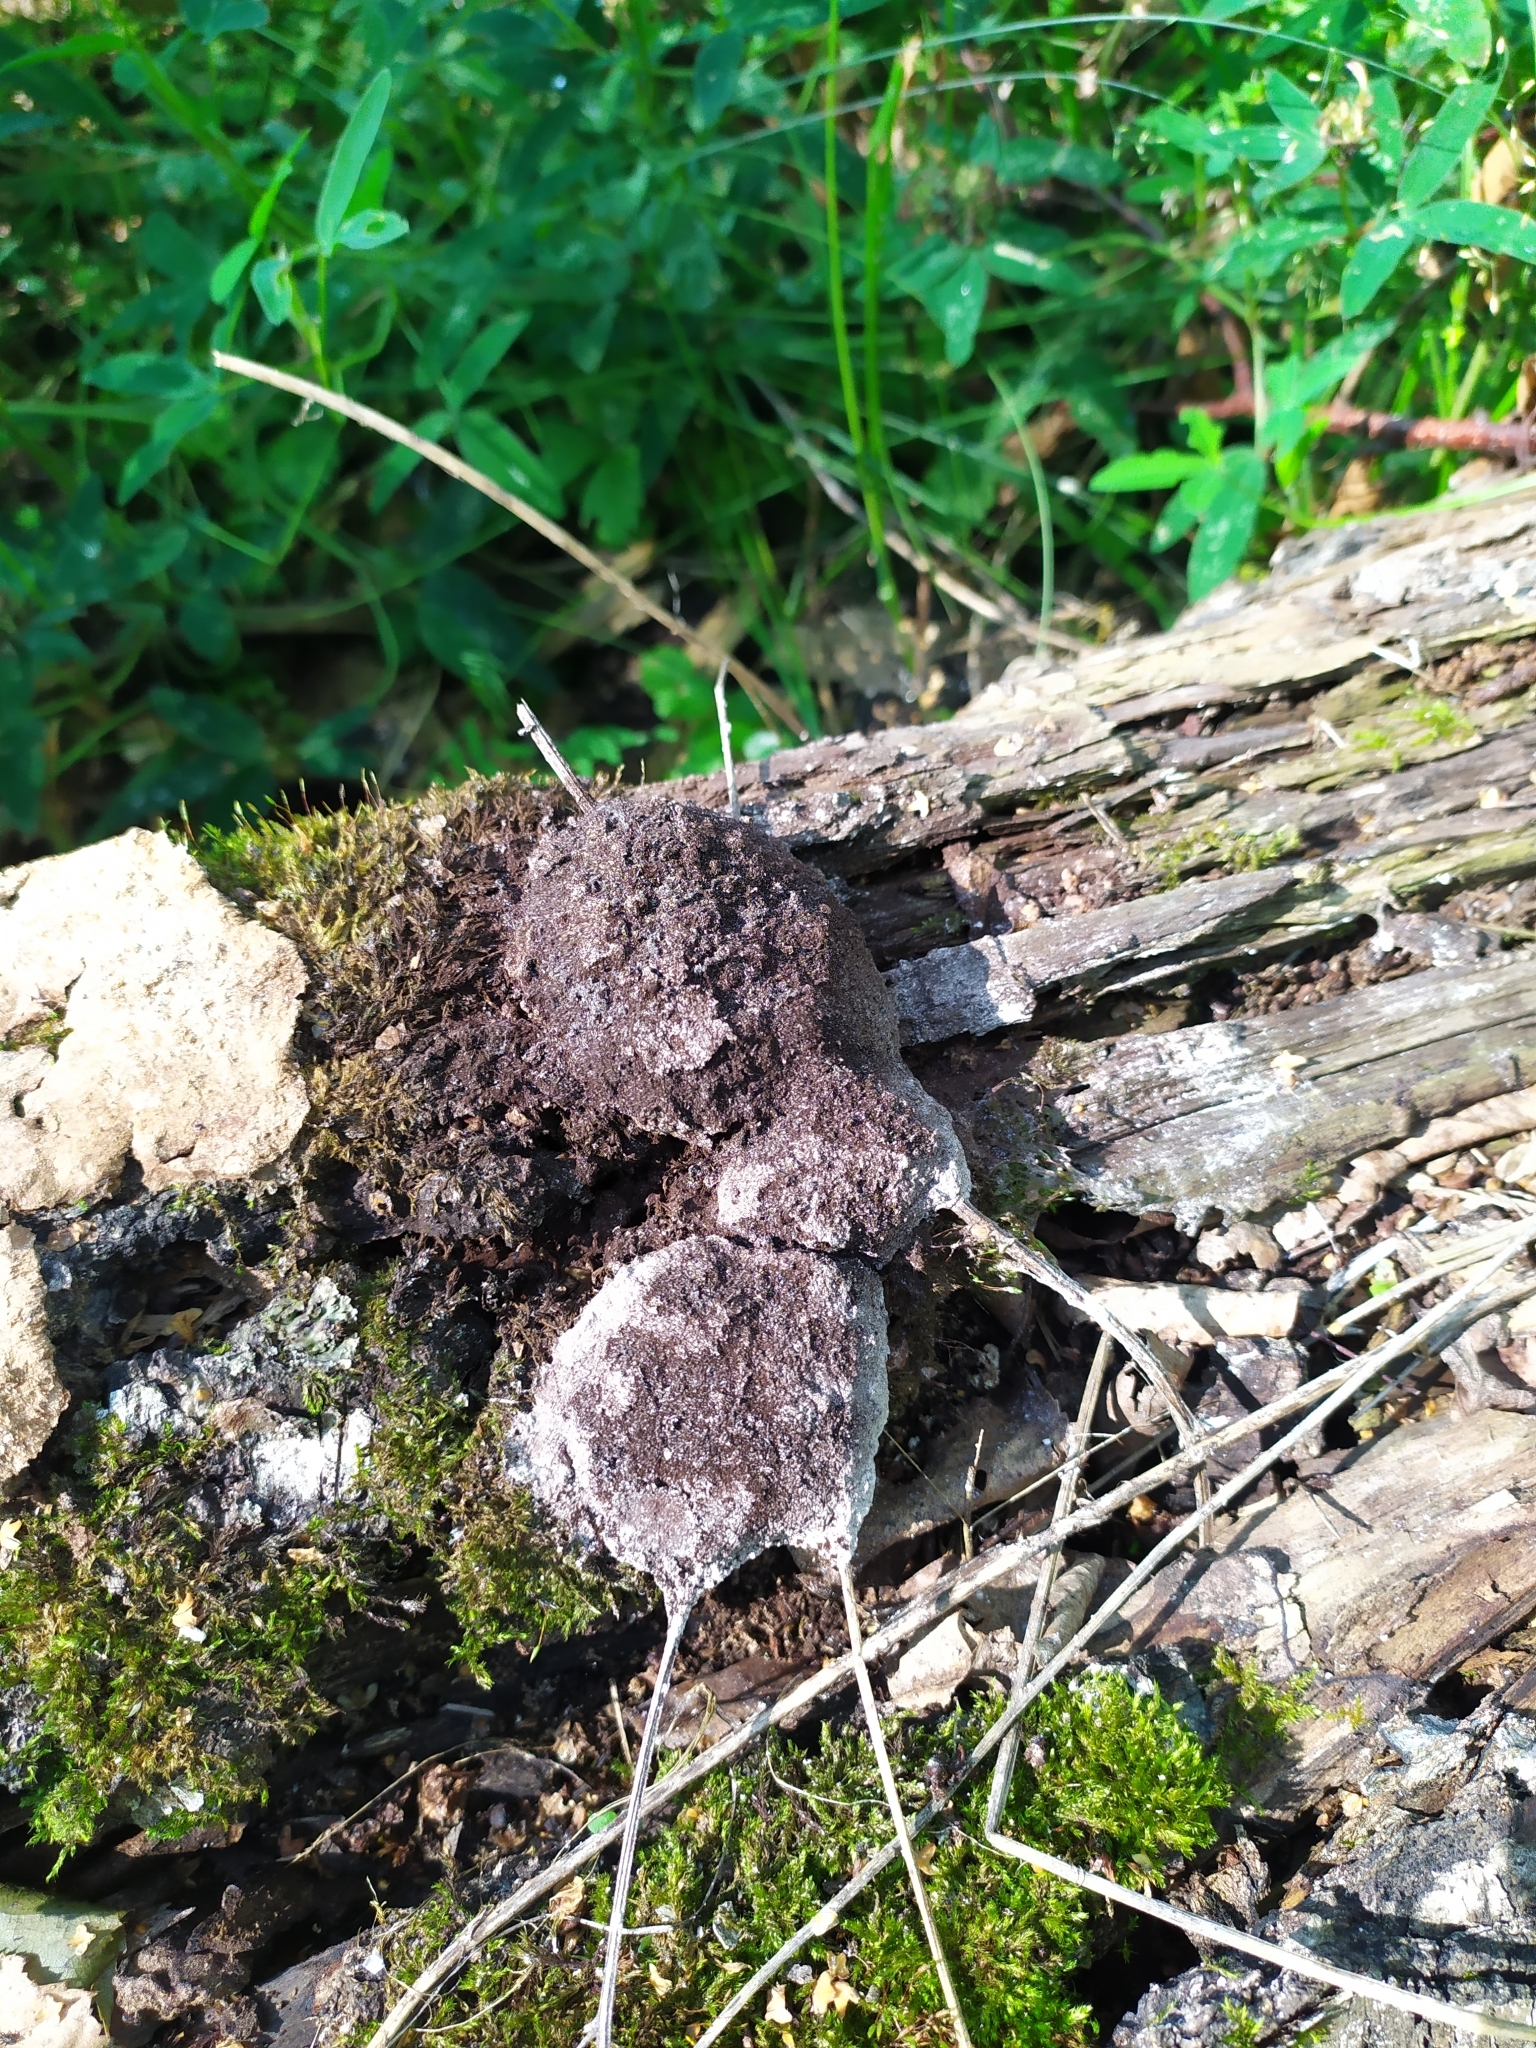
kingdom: Protozoa
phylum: Mycetozoa
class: Myxomycetes
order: Physarales
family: Physaraceae
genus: Fuligo
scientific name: Fuligo septica
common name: Dog vomit slime mold
